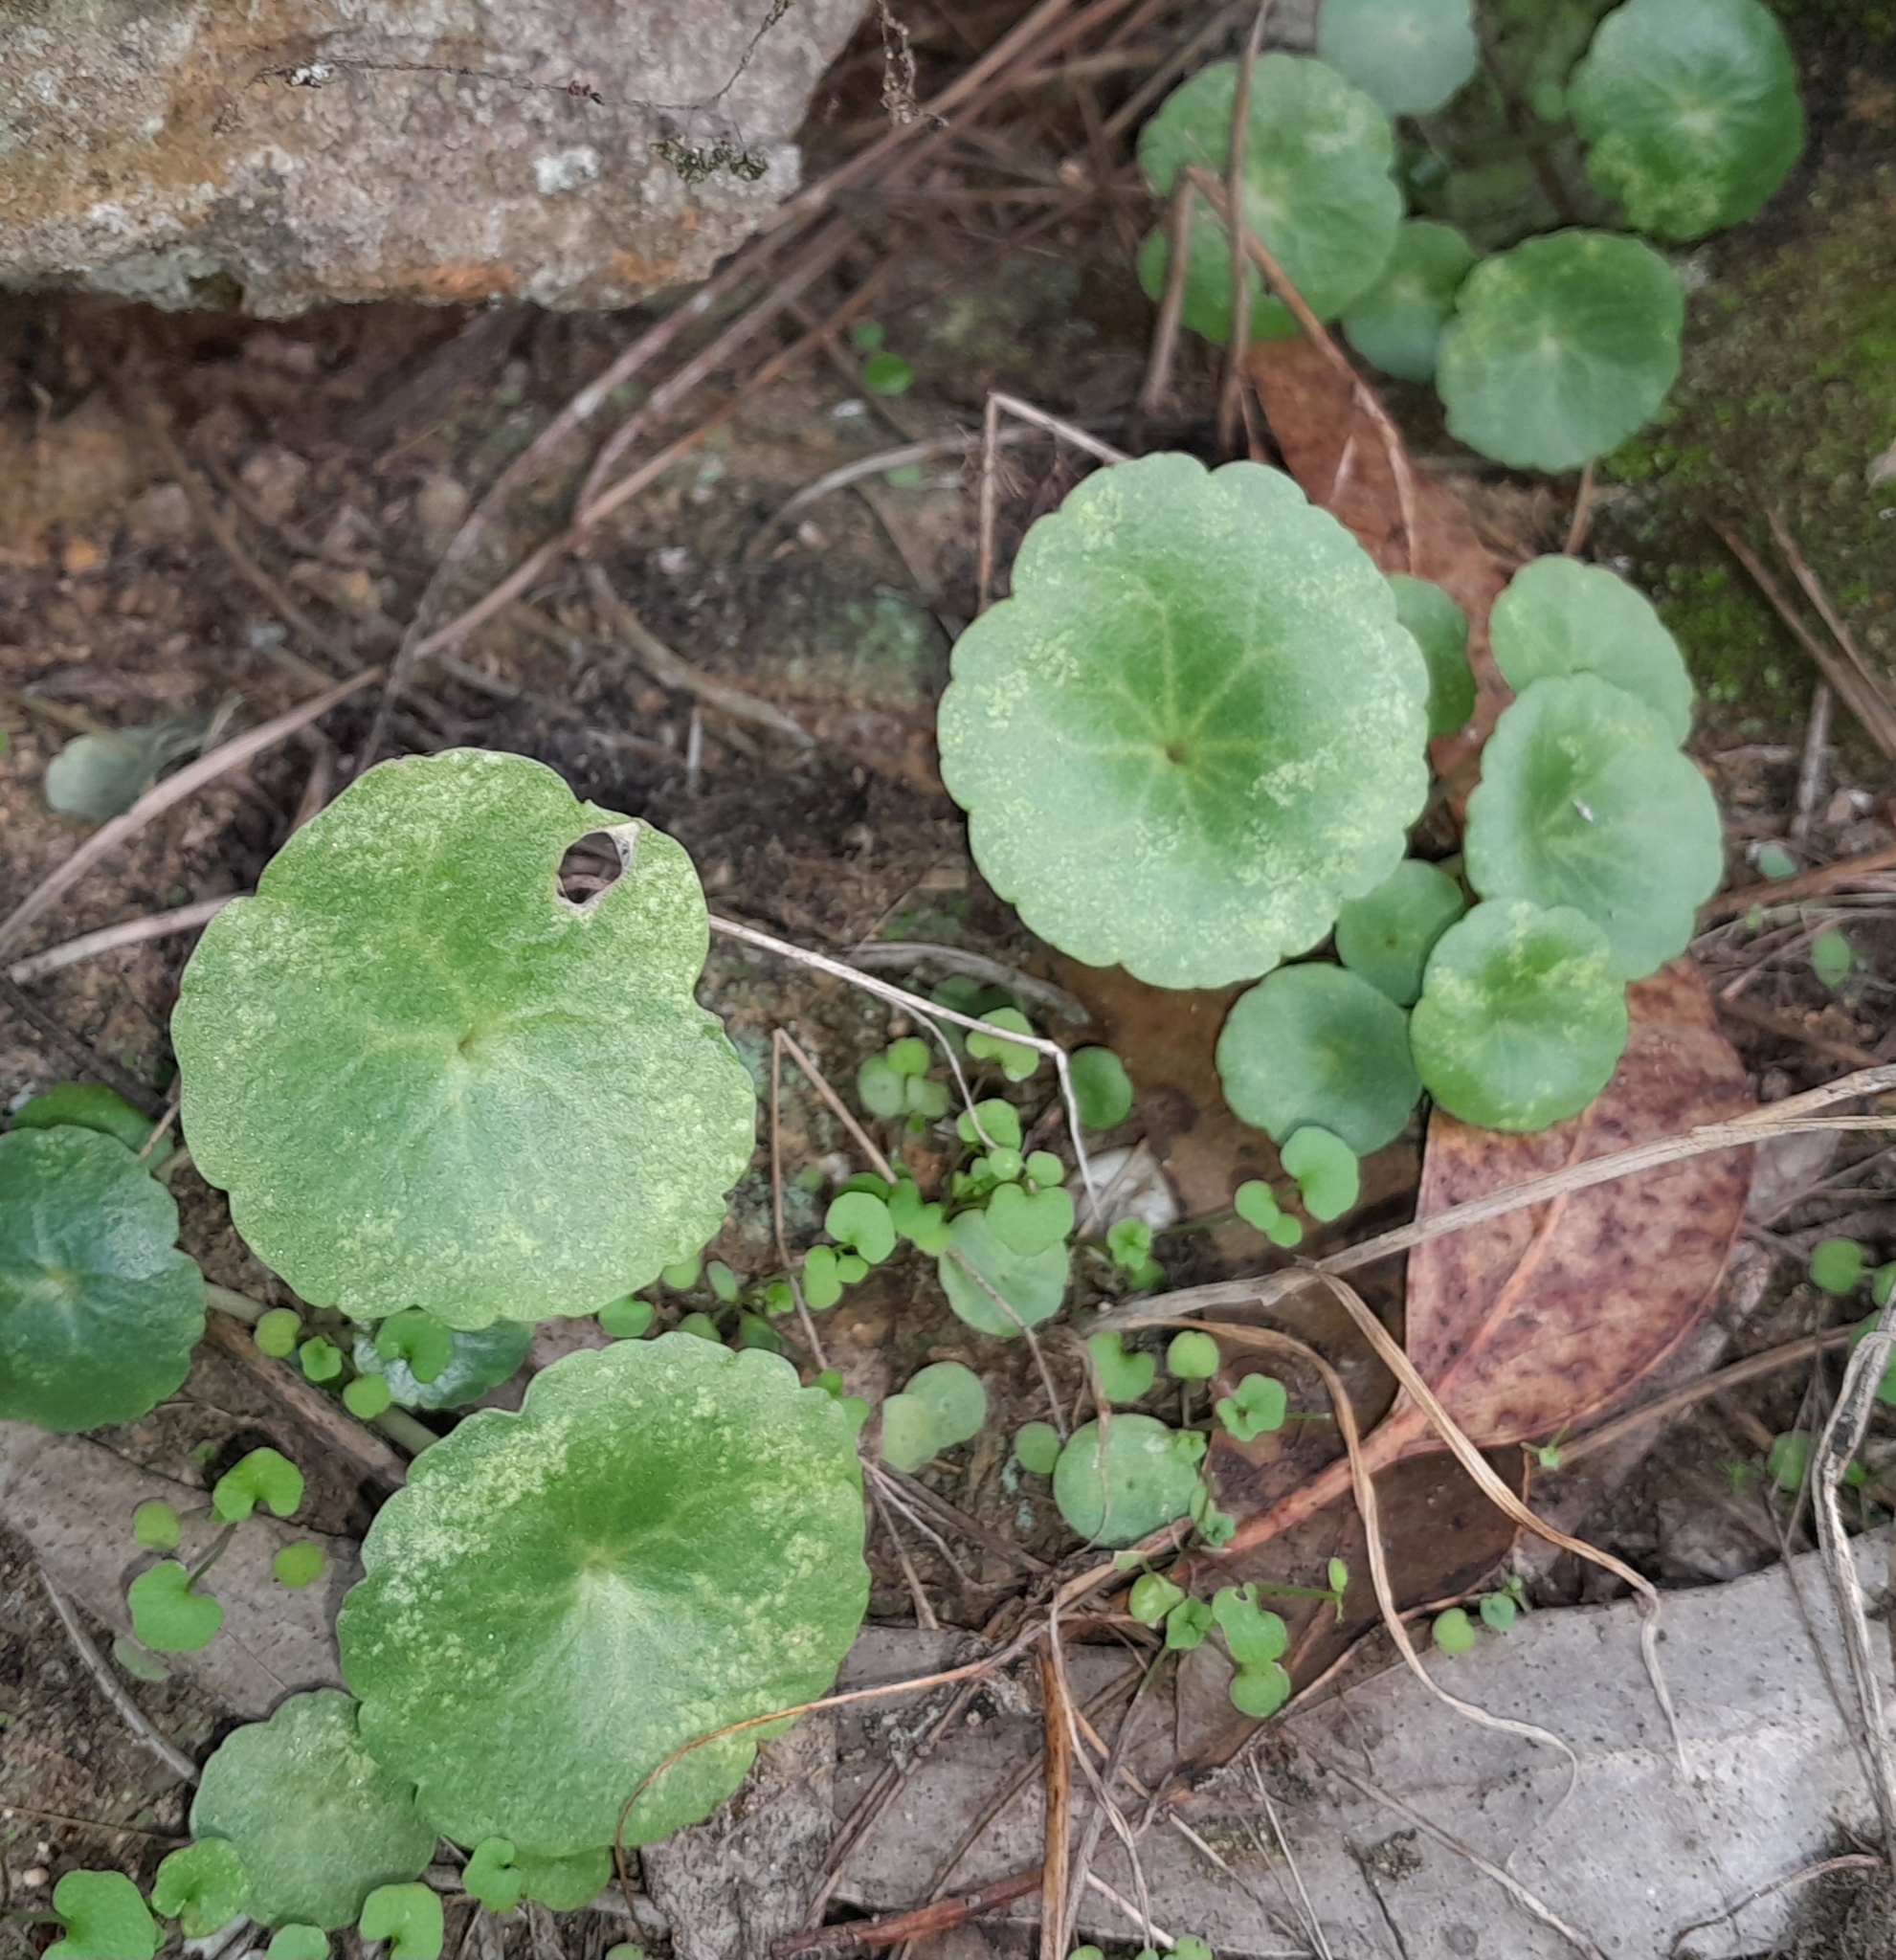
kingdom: Plantae
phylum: Tracheophyta
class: Magnoliopsida
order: Saxifragales
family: Crassulaceae
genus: Umbilicus
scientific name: Umbilicus rupestris
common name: Navelwort
